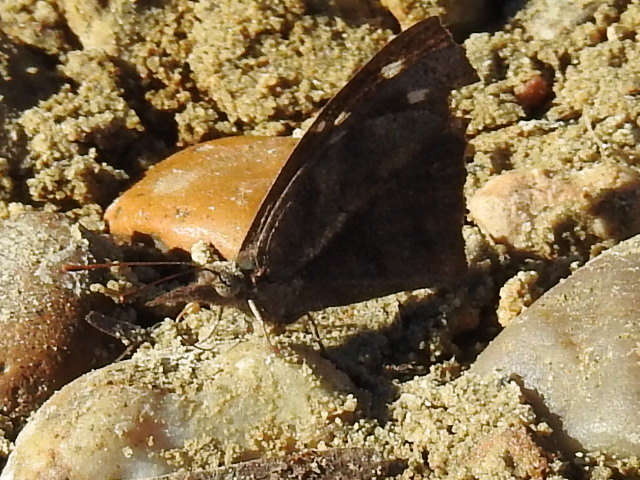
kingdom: Animalia
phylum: Arthropoda
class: Insecta
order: Lepidoptera
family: Nymphalidae
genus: Libytheana
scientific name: Libytheana carinenta
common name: American snout
